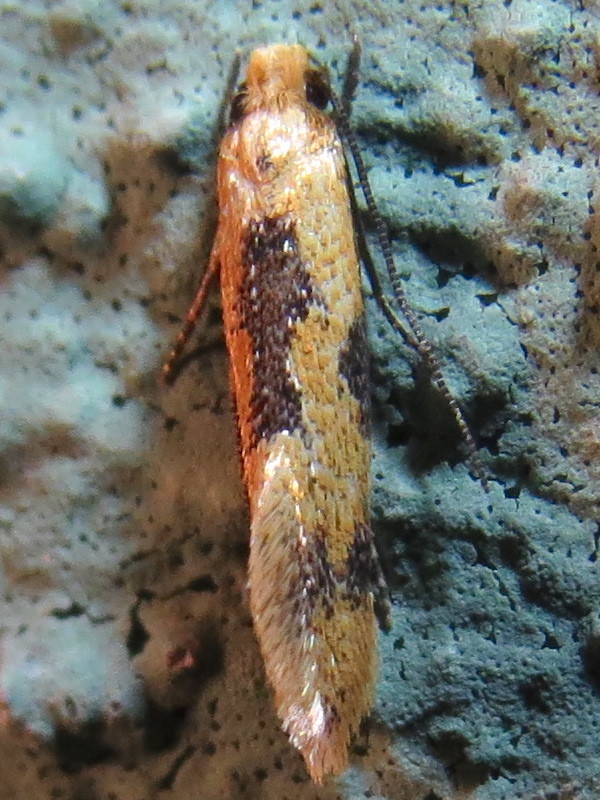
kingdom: Animalia
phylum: Arthropoda
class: Insecta
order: Lepidoptera
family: Meessiidae
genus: Hybroma
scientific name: Hybroma servulella
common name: Yellow wave moth
